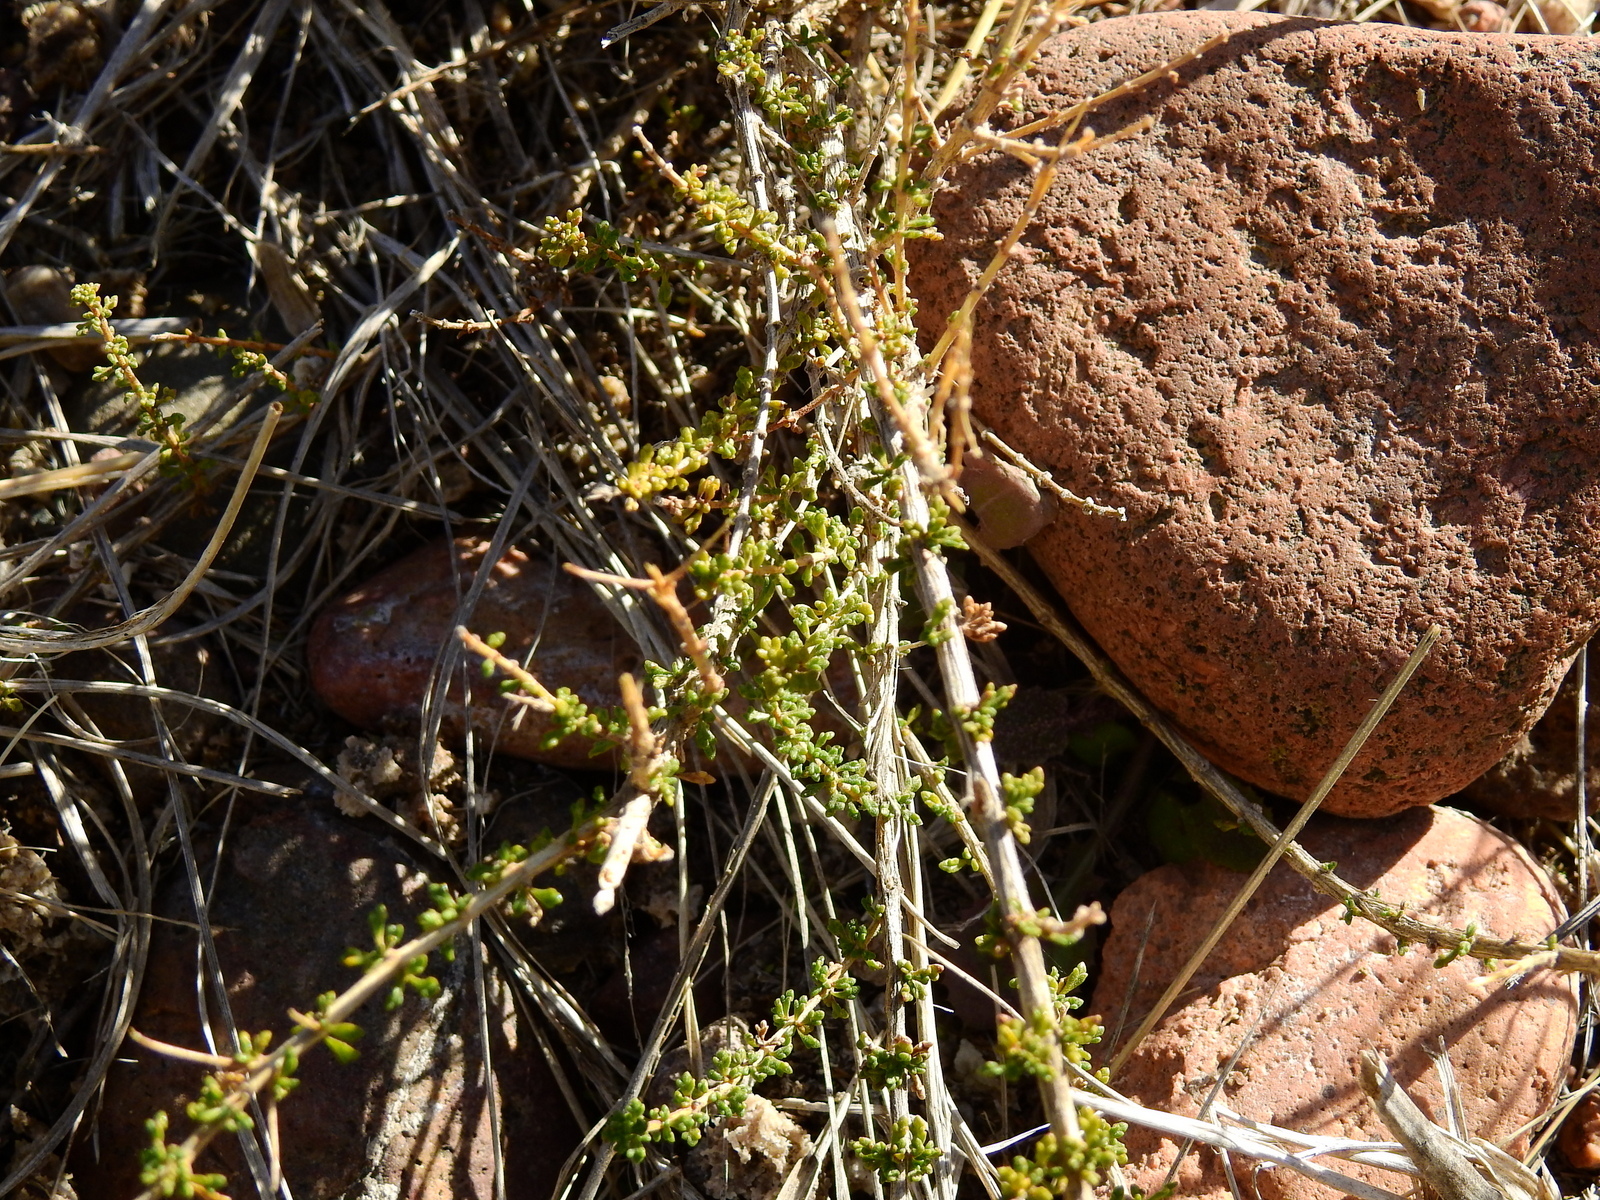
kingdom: Plantae
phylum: Tracheophyta
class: Magnoliopsida
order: Lamiales
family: Verbenaceae
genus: Acantholippia
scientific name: Acantholippia seriphioides
